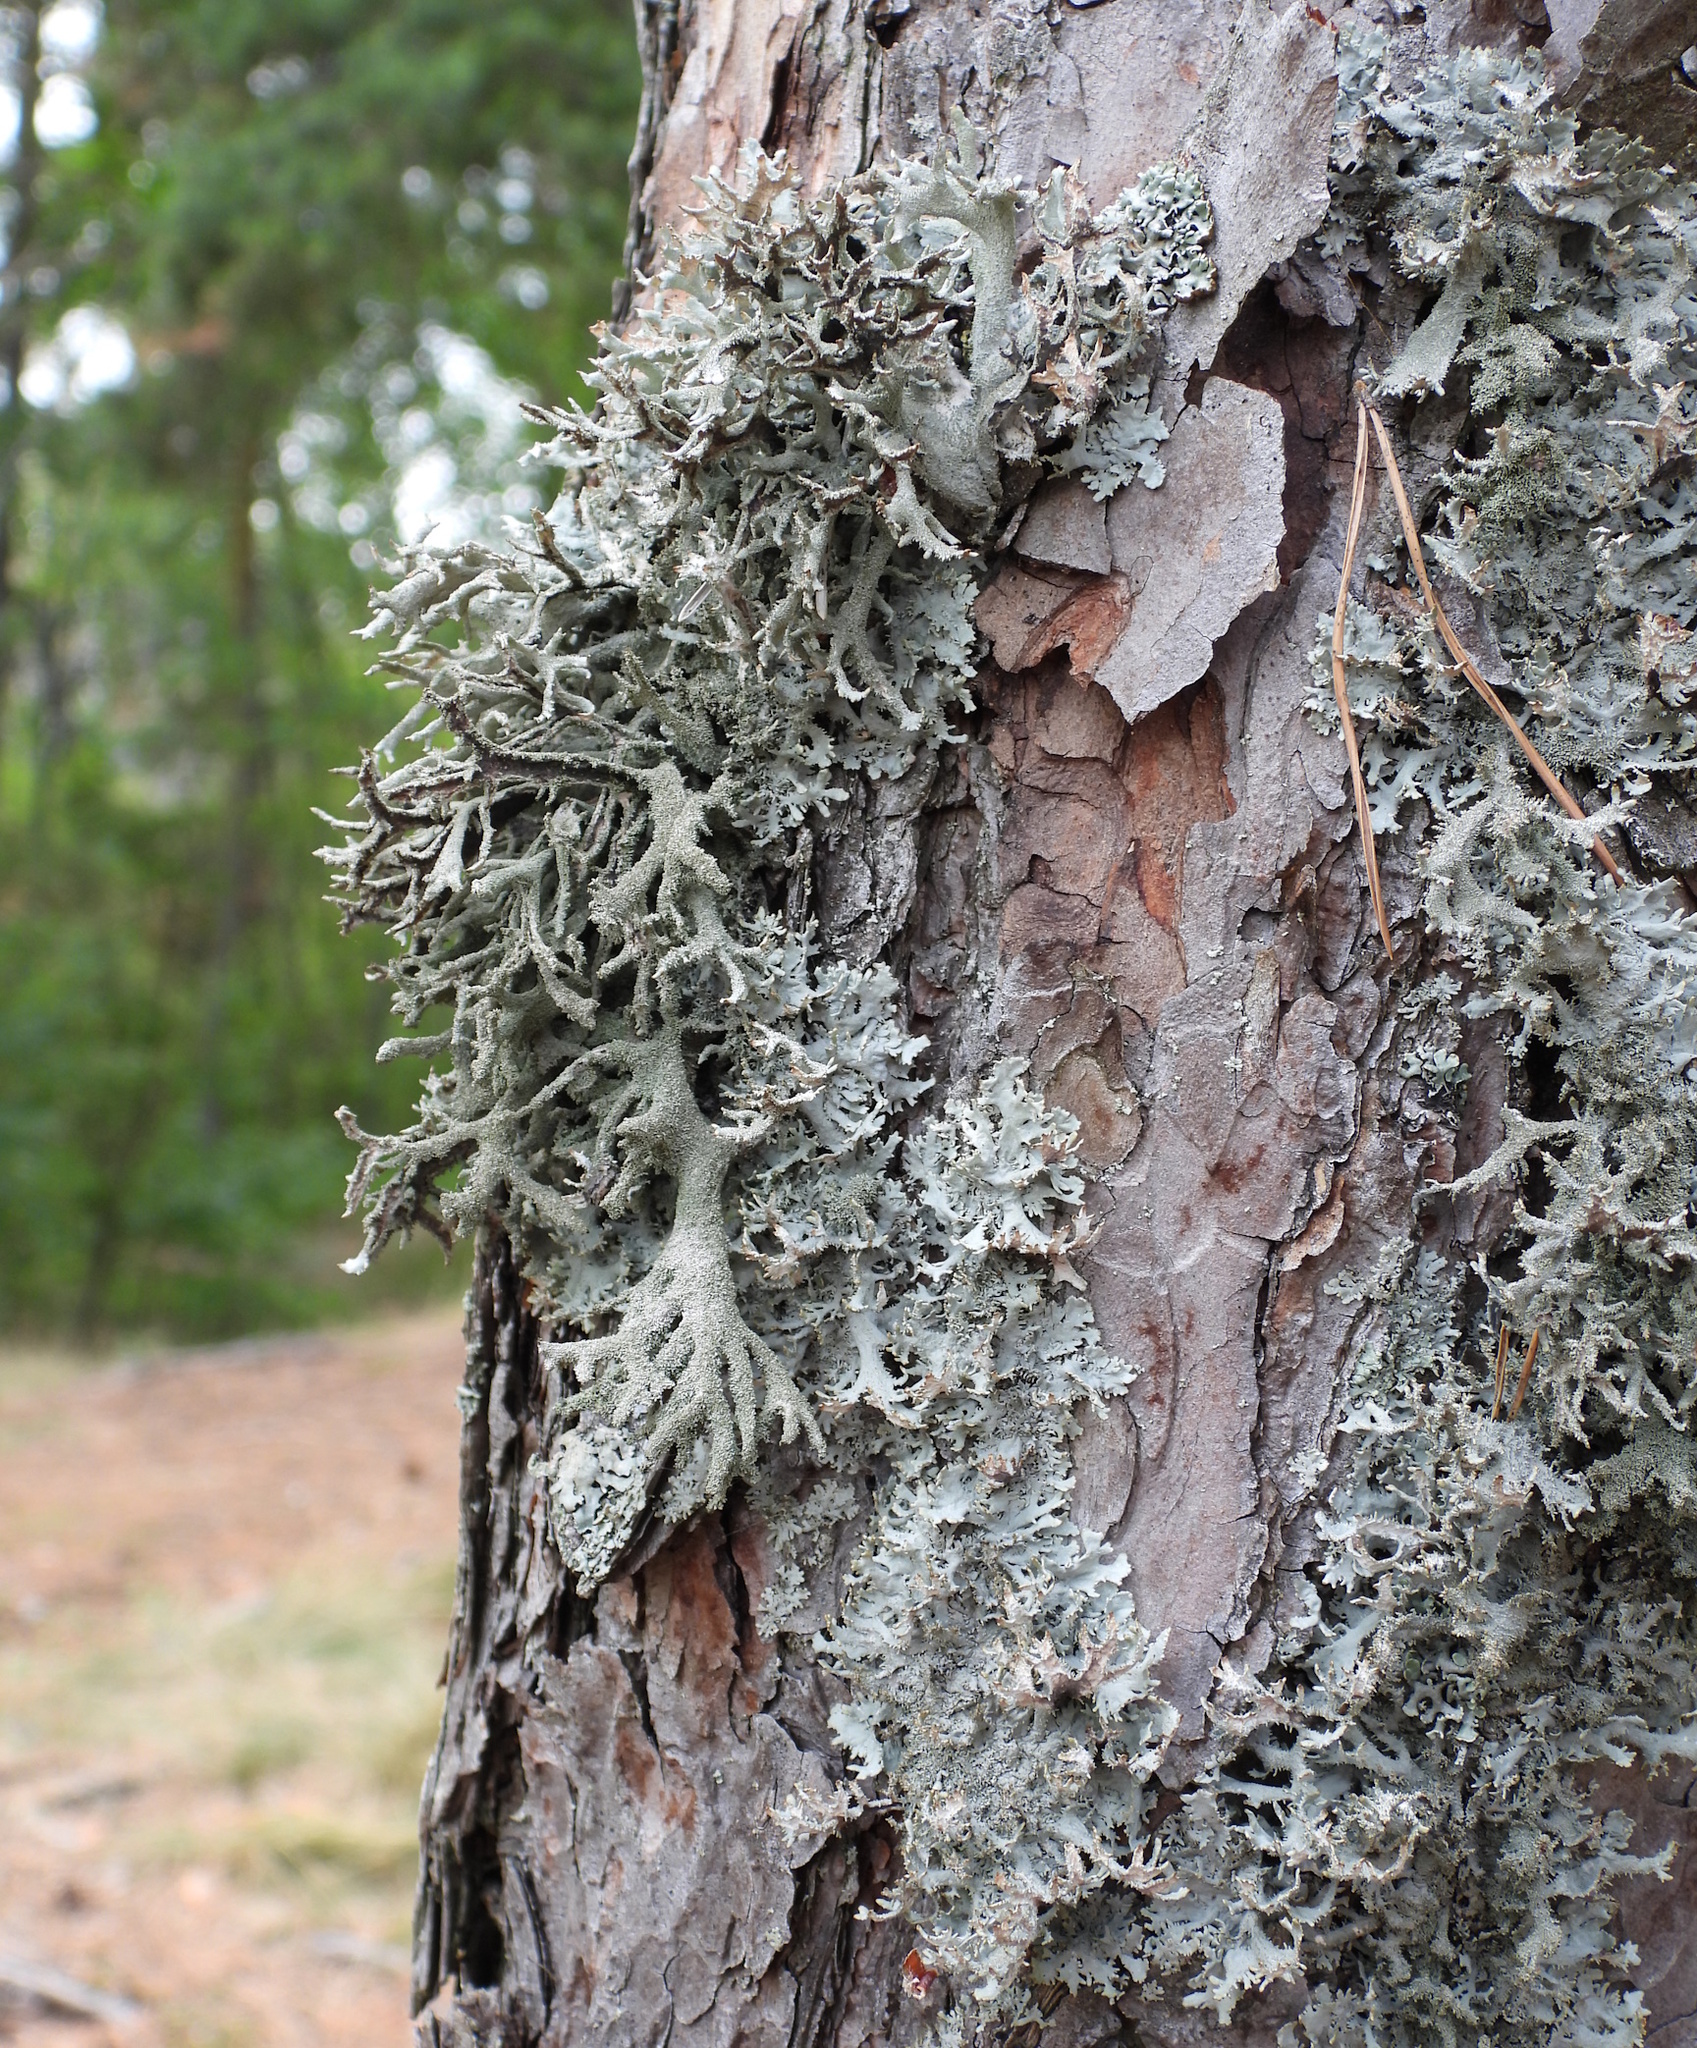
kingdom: Fungi
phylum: Ascomycota
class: Lecanoromycetes
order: Lecanorales
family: Parmeliaceae
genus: Pseudevernia
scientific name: Pseudevernia furfuracea
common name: Tree moss
